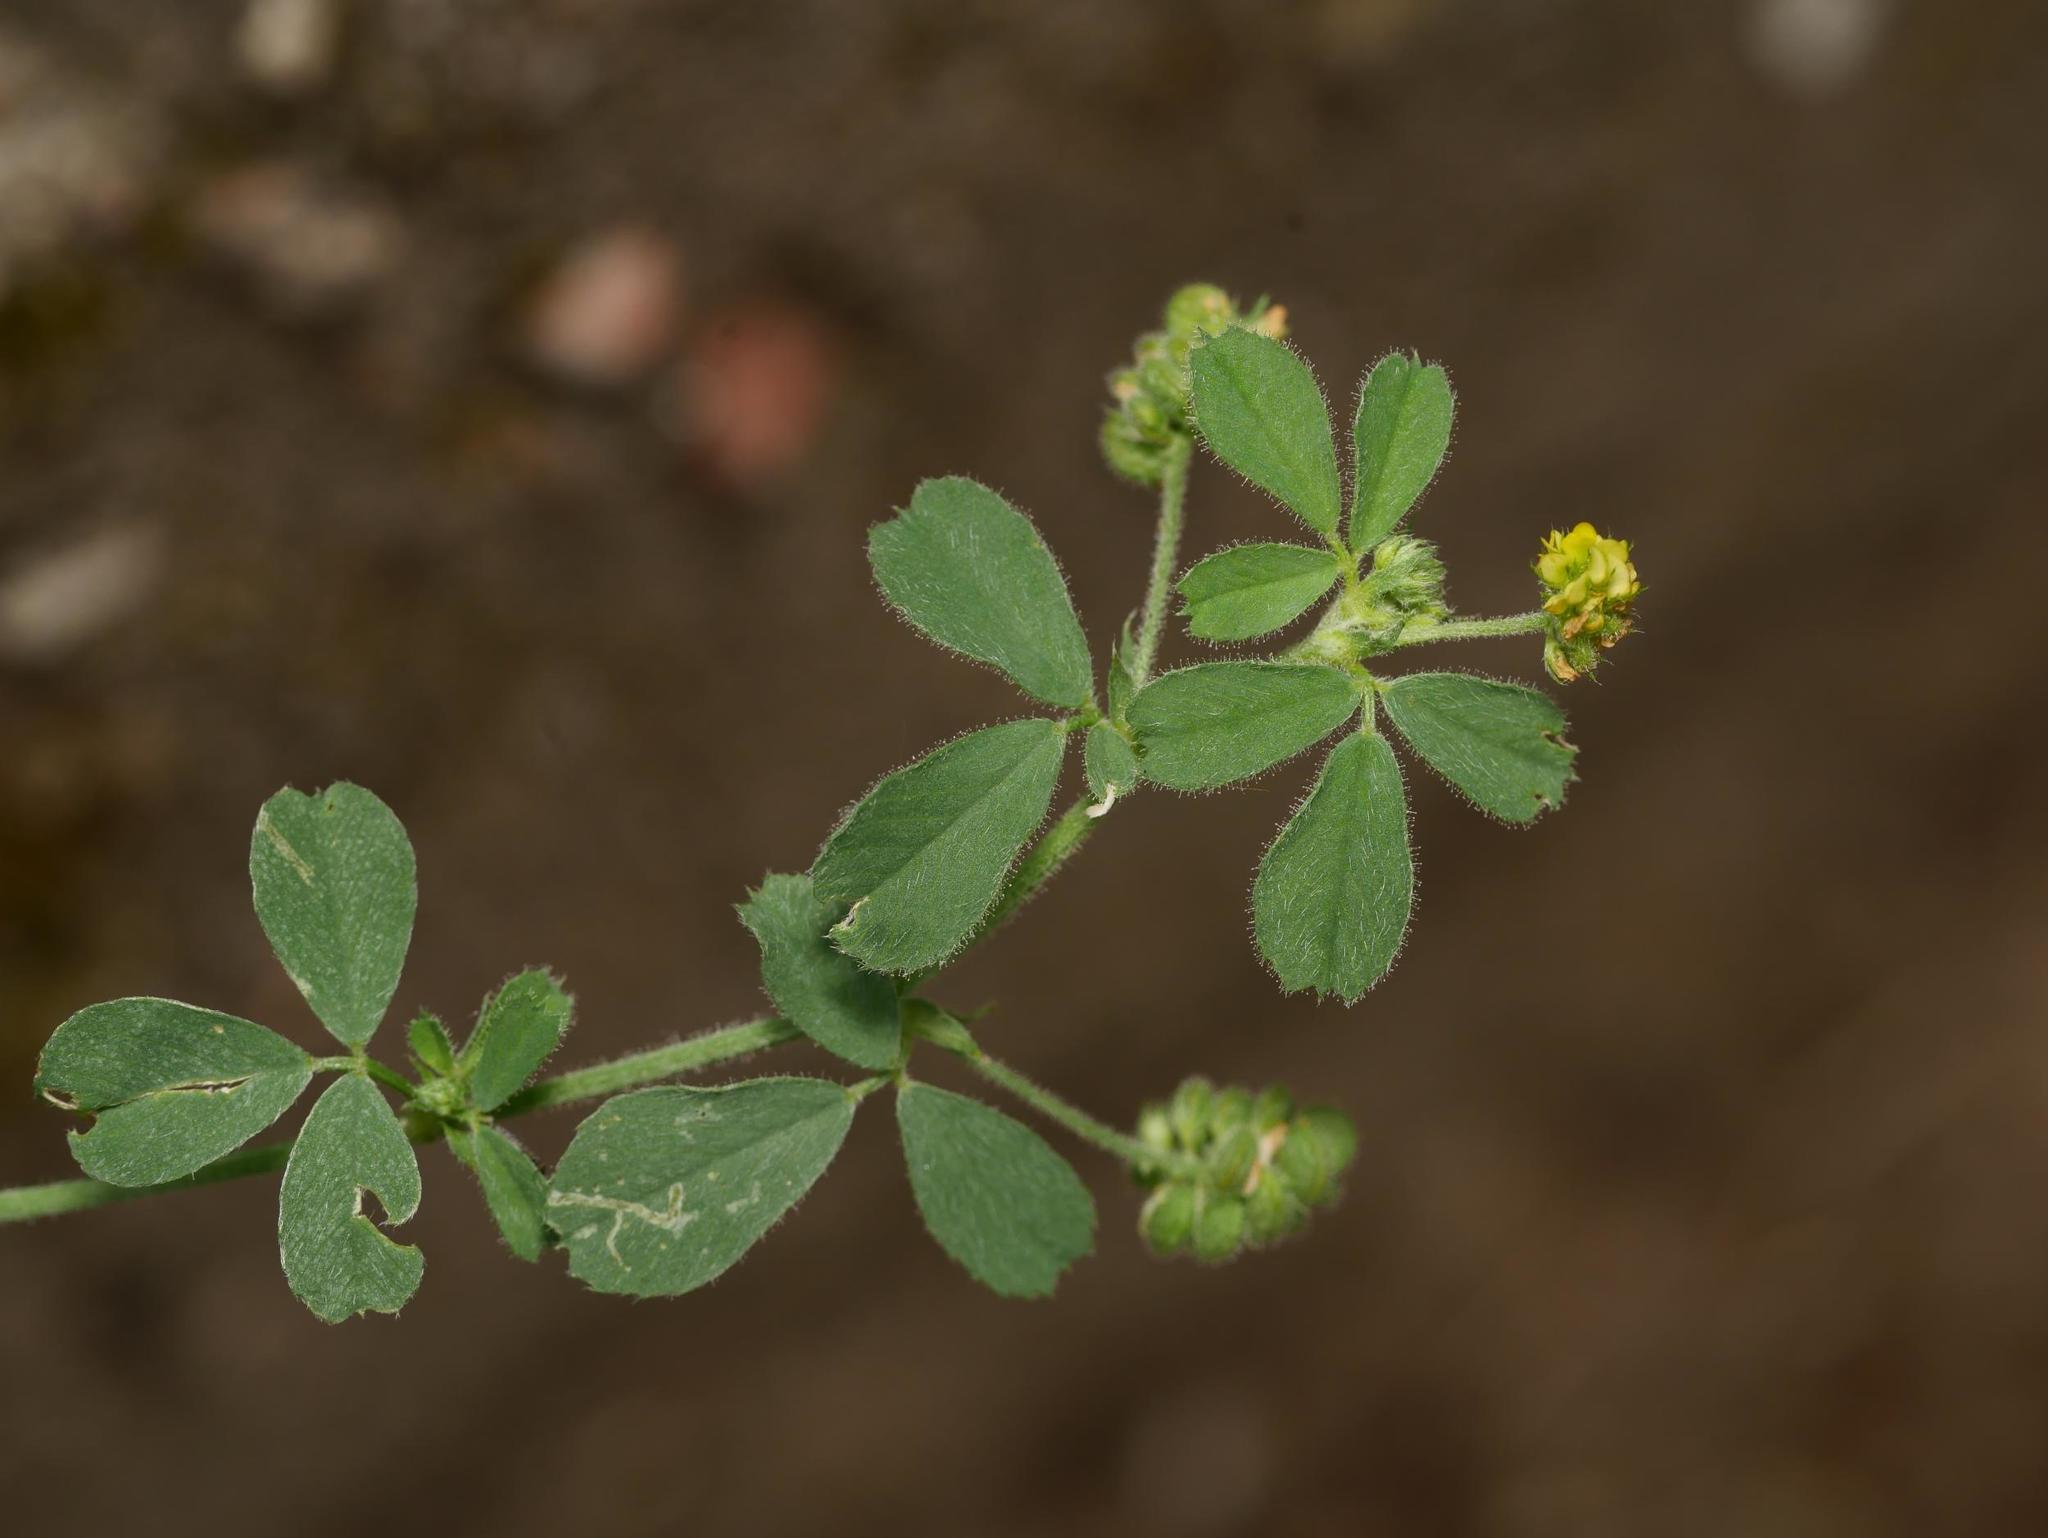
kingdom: Plantae
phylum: Tracheophyta
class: Magnoliopsida
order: Fabales
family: Fabaceae
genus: Medicago
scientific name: Medicago lupulina
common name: Black medick
